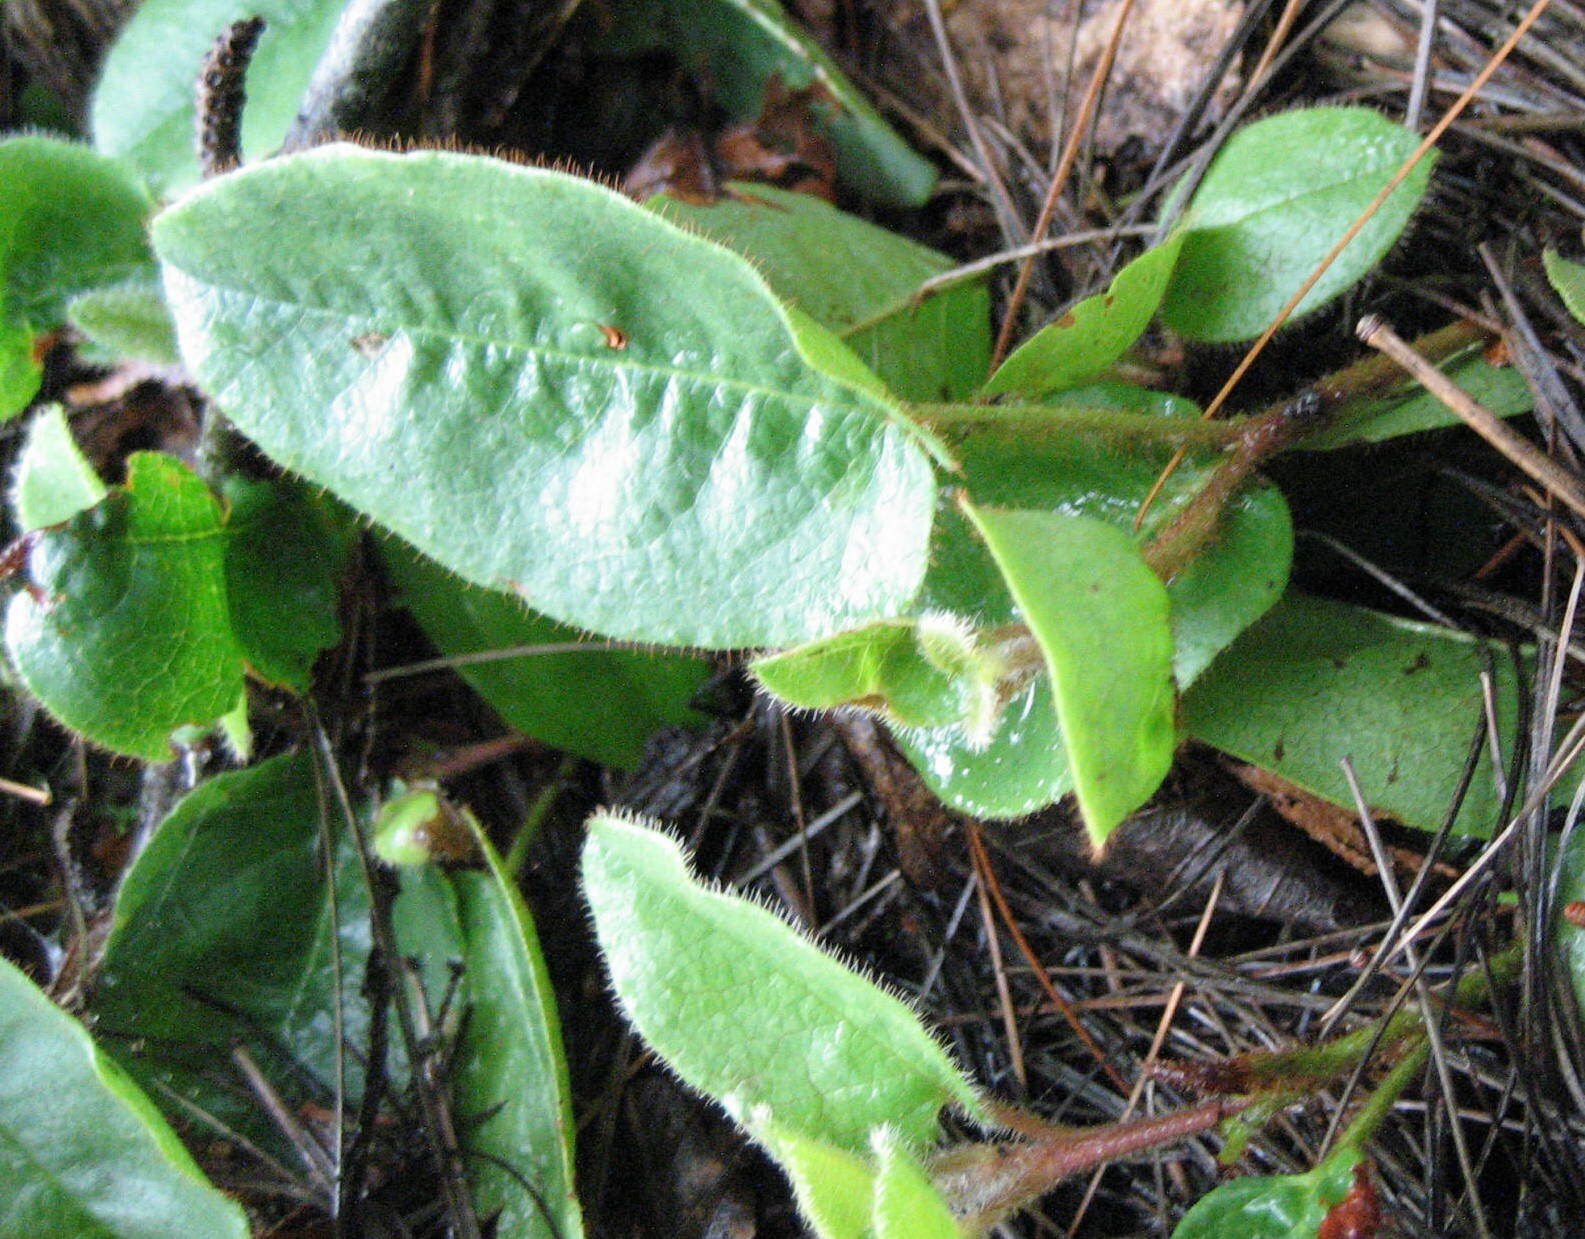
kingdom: Plantae
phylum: Tracheophyta
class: Magnoliopsida
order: Ericales
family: Ericaceae
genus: Epigaea
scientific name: Epigaea repens
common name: Gravelroot
